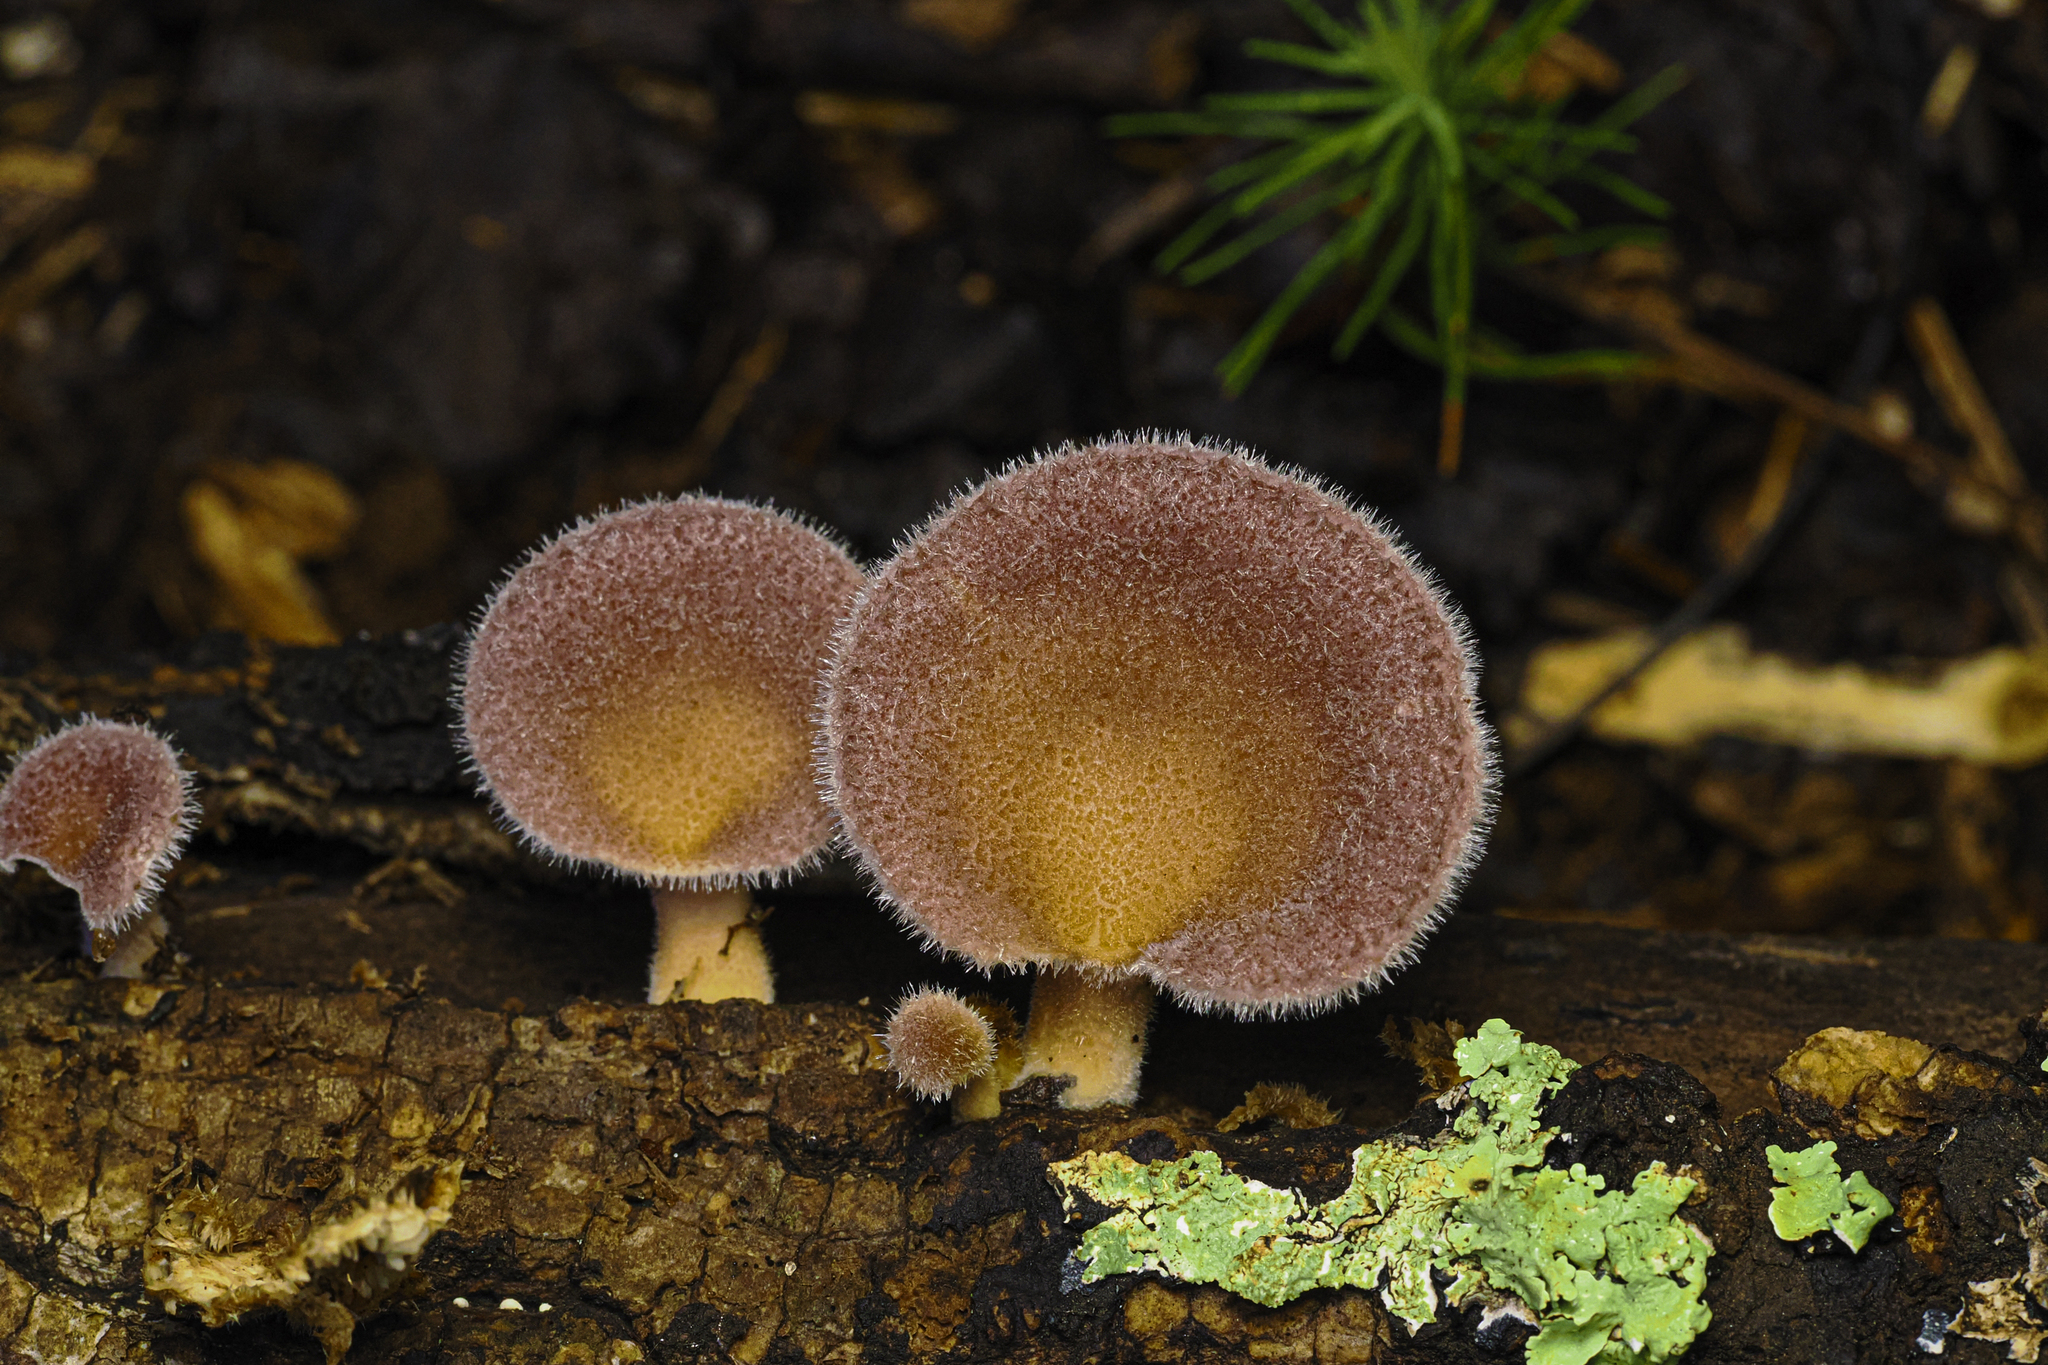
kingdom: Fungi
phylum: Basidiomycota
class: Agaricomycetes
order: Polyporales
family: Panaceae
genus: Panus
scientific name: Panus neostrigosus
